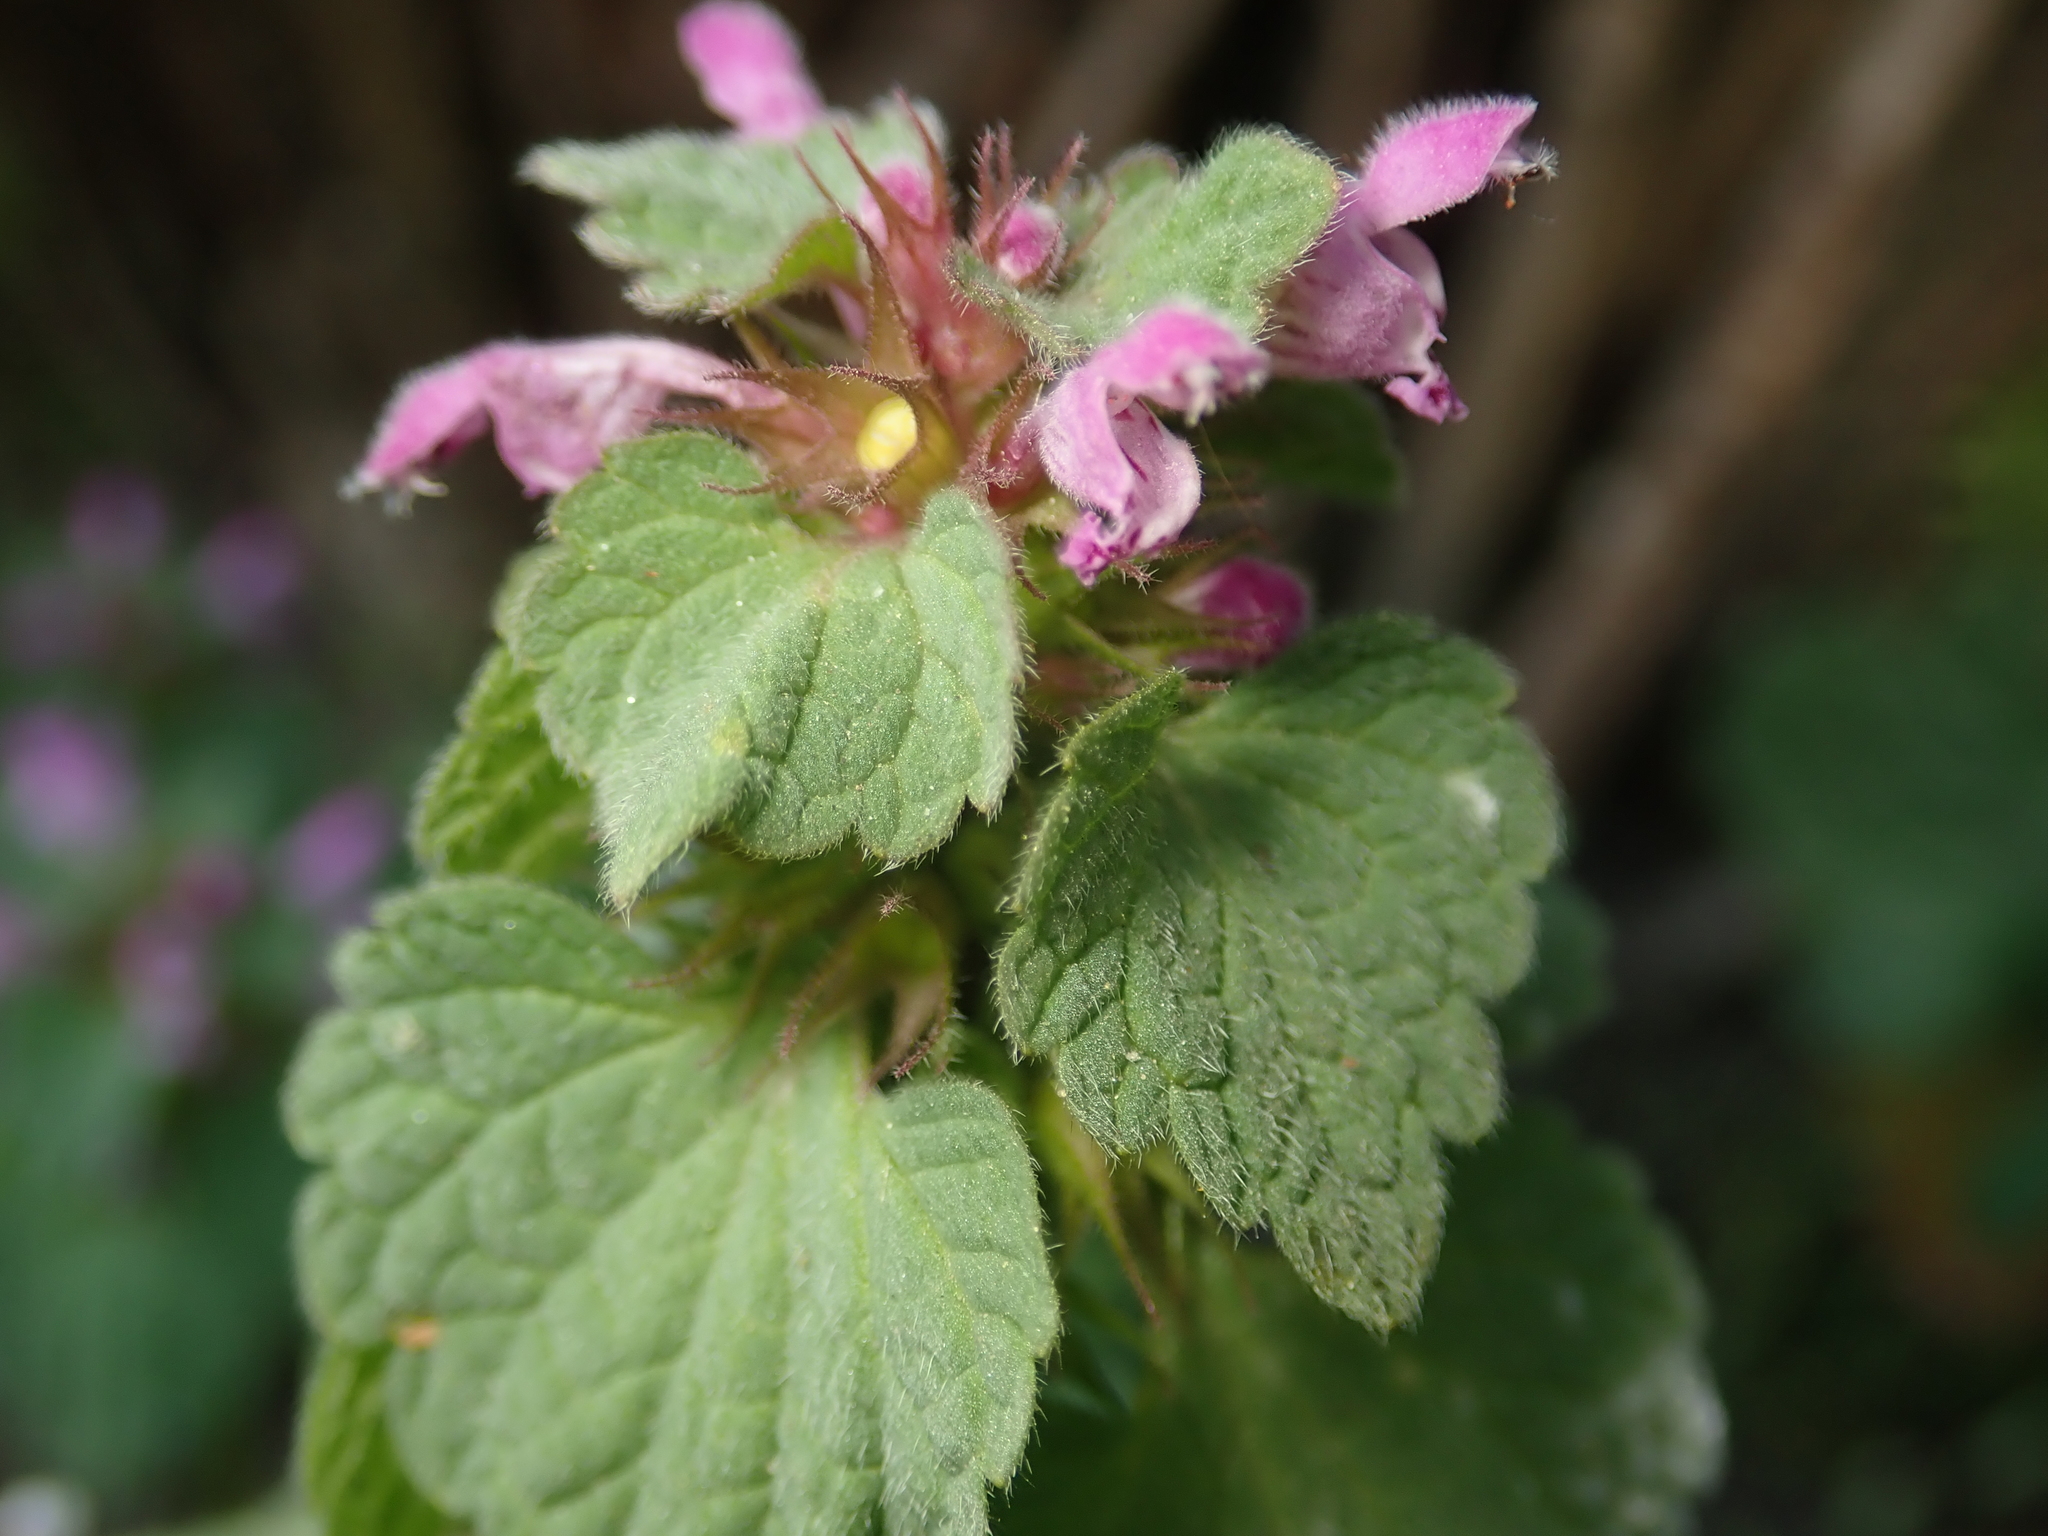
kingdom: Plantae
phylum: Tracheophyta
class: Magnoliopsida
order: Lamiales
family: Lamiaceae
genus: Lamium
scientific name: Lamium purpureum
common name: Red dead-nettle
